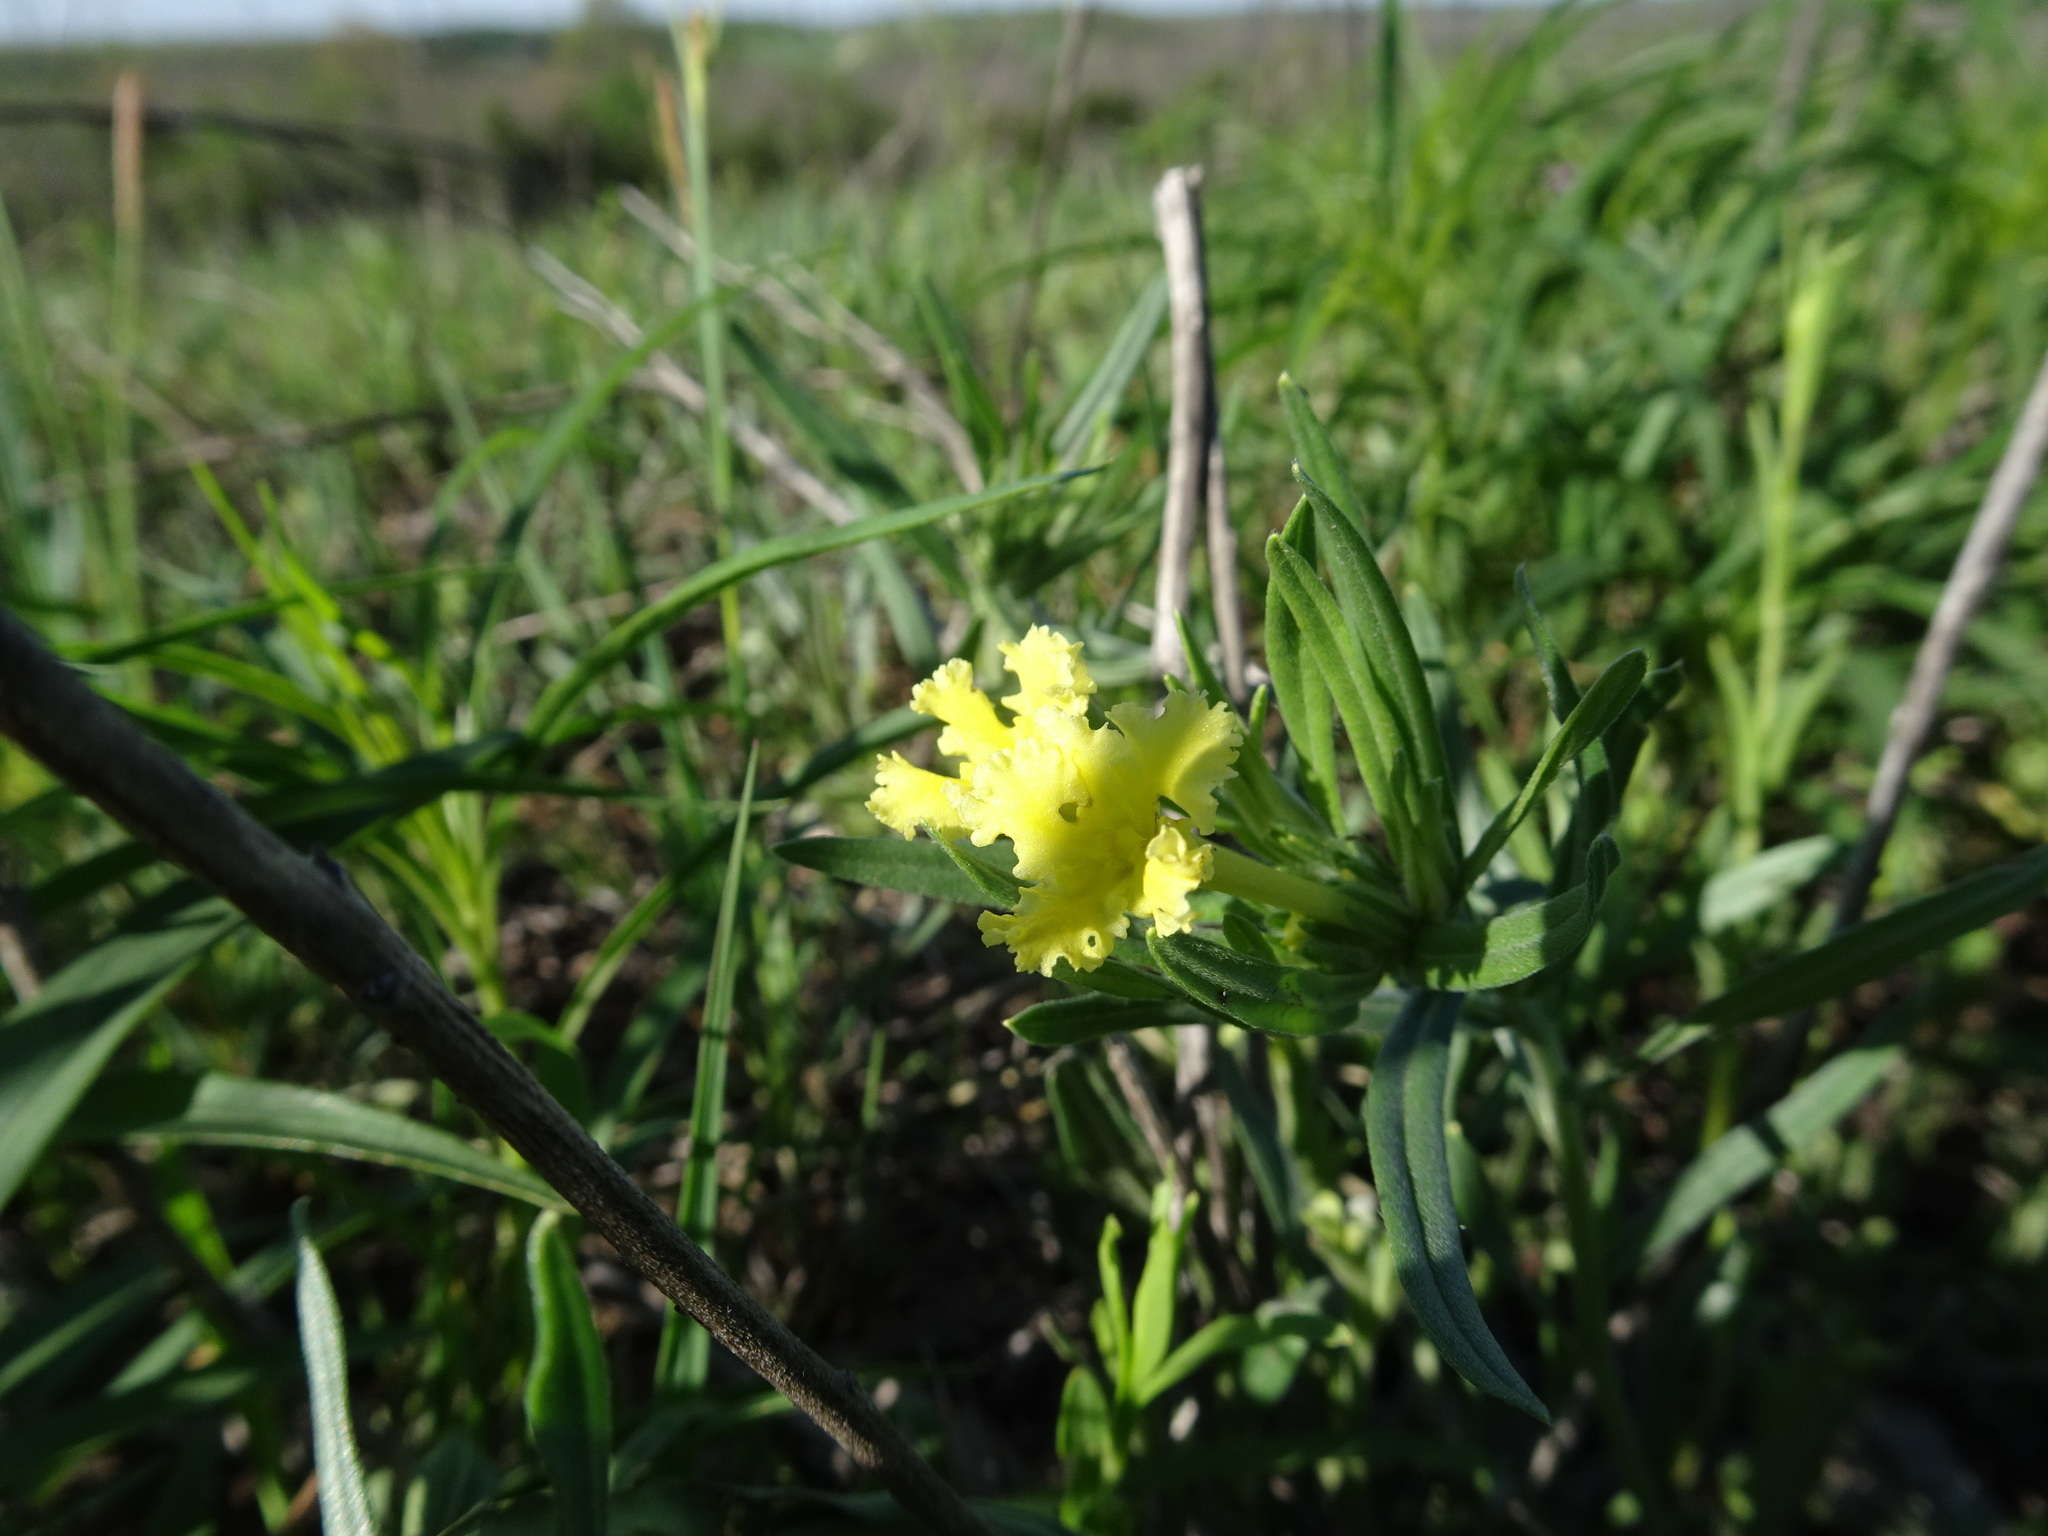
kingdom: Plantae
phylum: Tracheophyta
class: Magnoliopsida
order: Boraginales
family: Boraginaceae
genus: Lithospermum
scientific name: Lithospermum incisum
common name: Fringed gromwell
